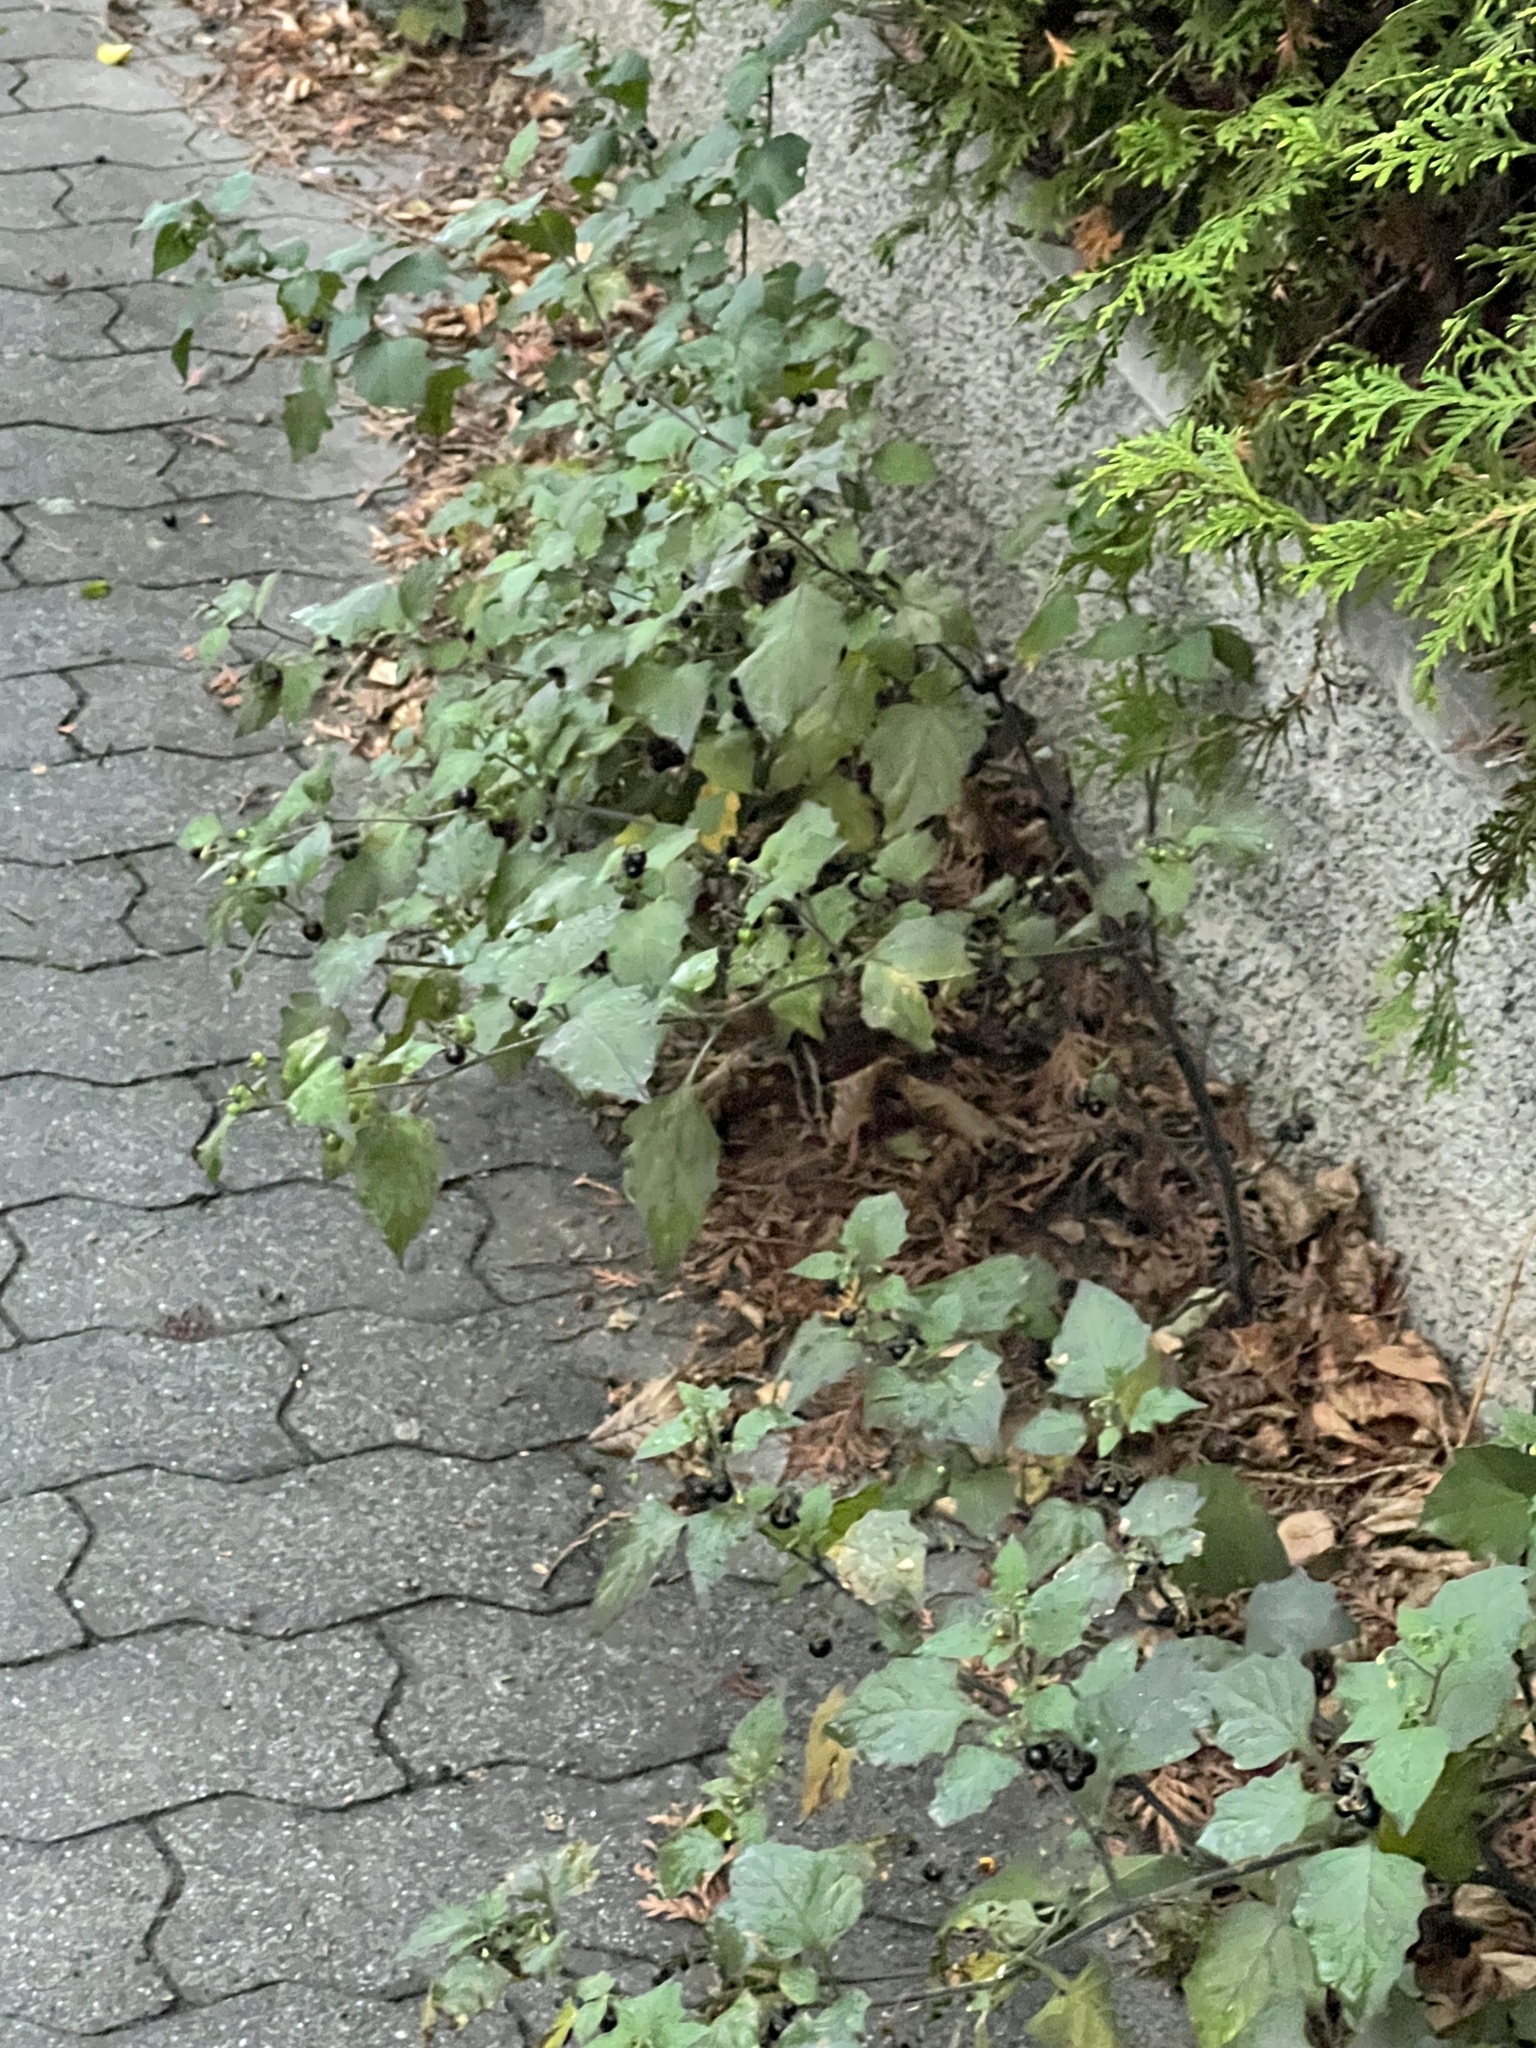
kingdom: Plantae
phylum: Tracheophyta
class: Magnoliopsida
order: Solanales
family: Solanaceae
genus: Solanum
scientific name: Solanum nigrum
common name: Black nightshade
